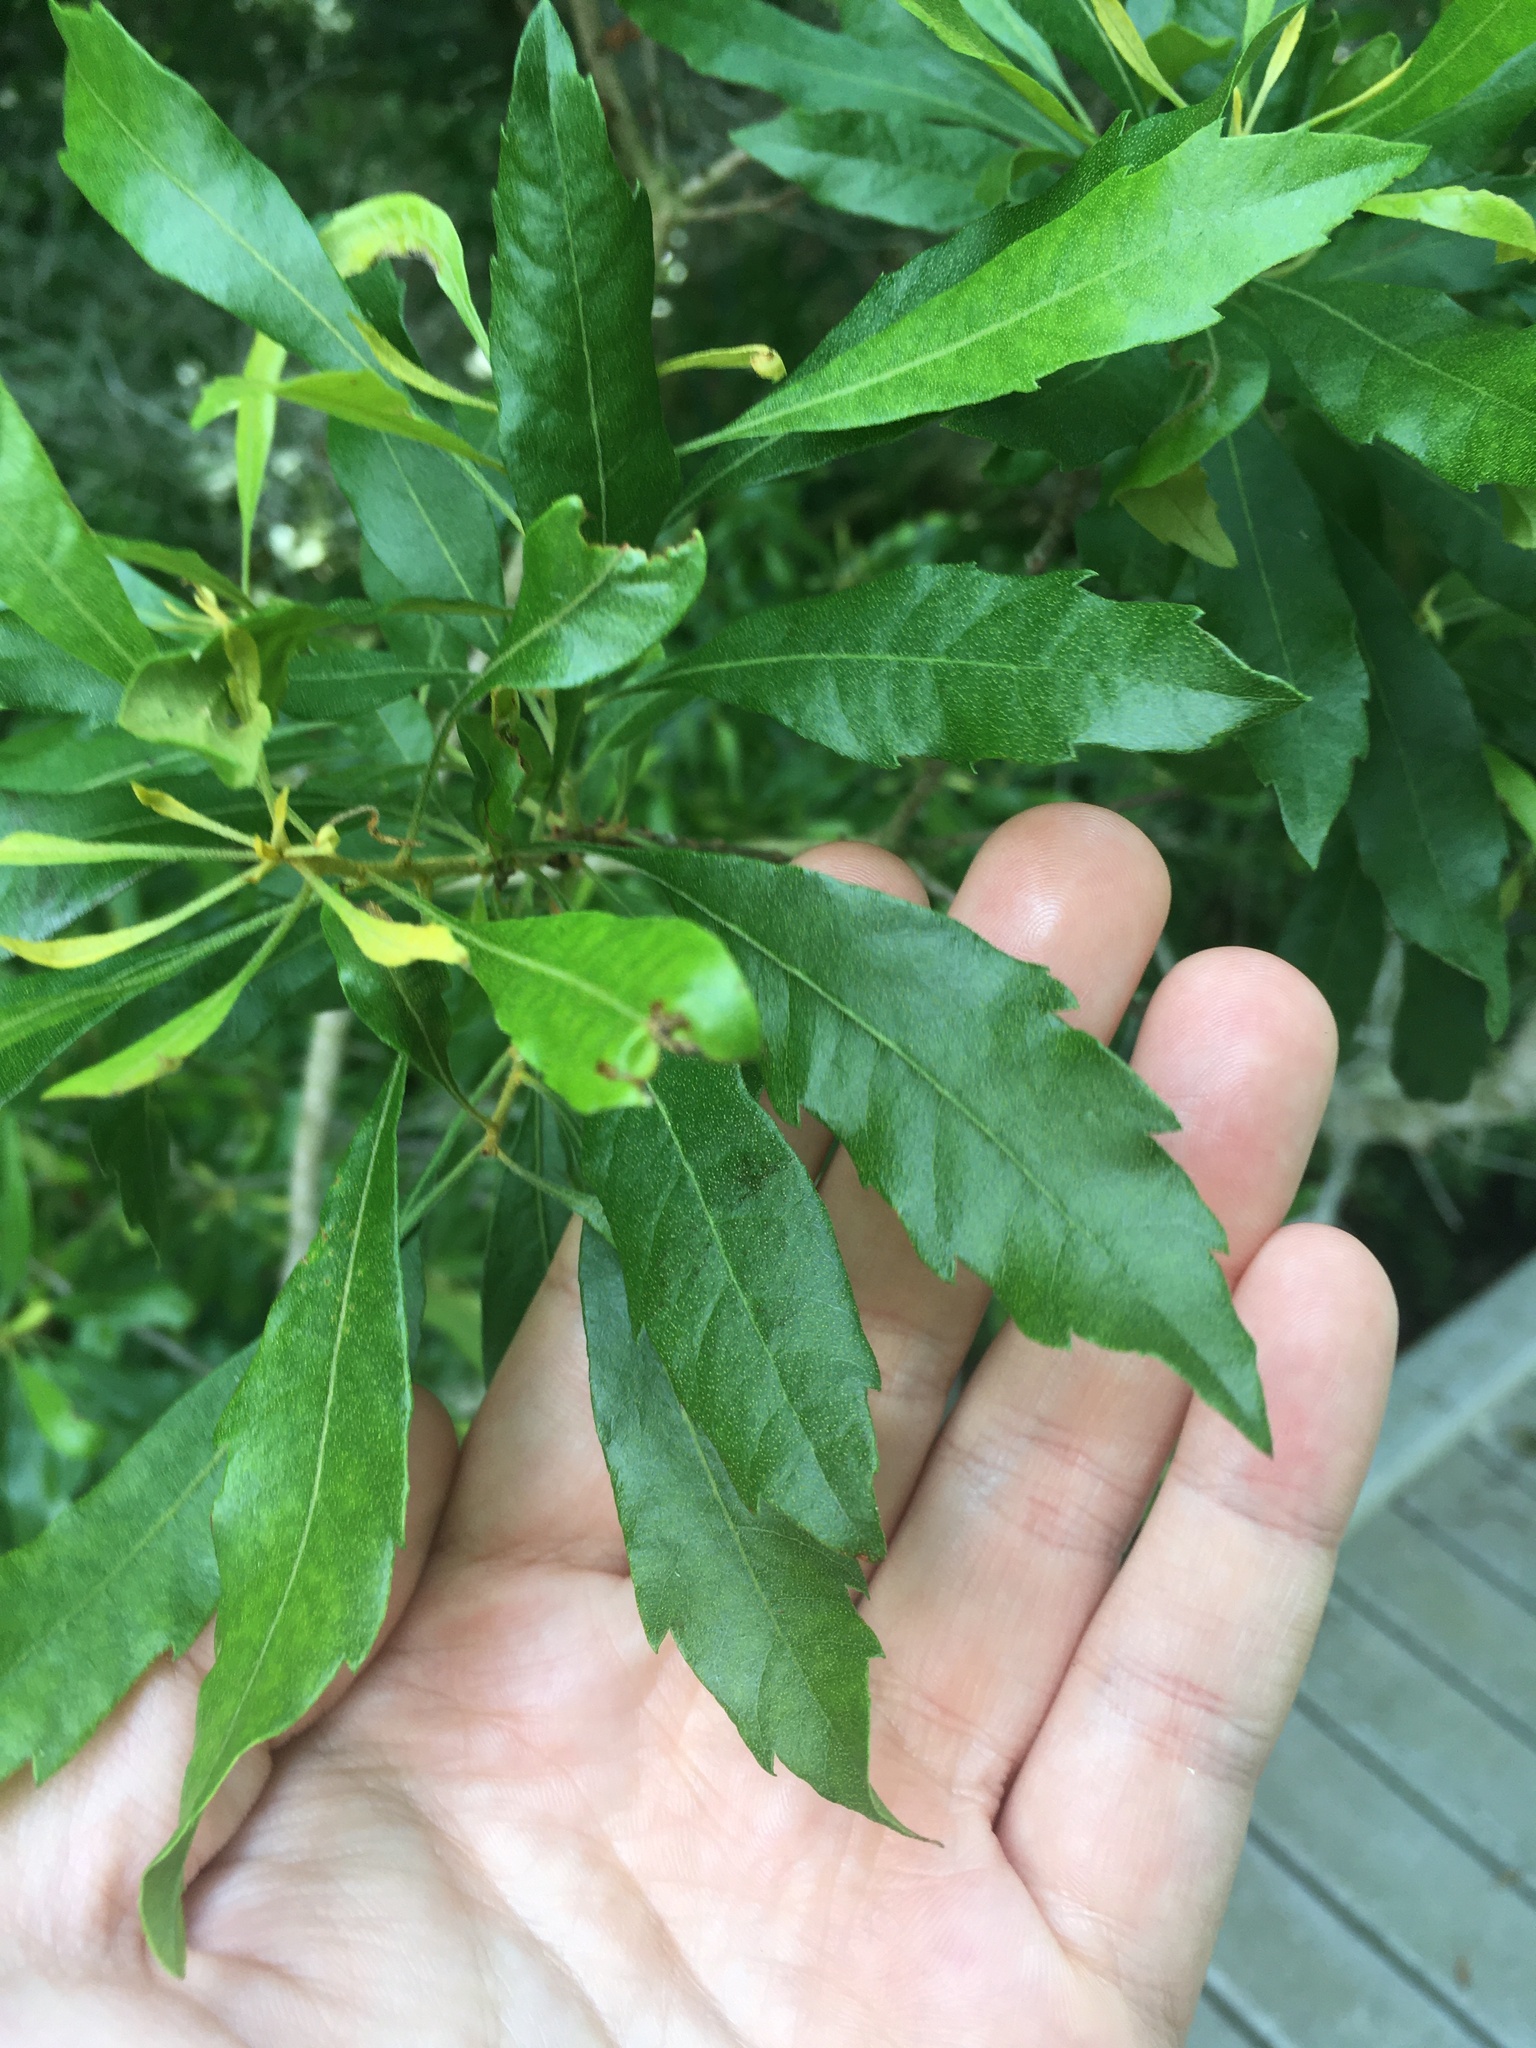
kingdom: Plantae
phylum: Tracheophyta
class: Magnoliopsida
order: Fagales
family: Myricaceae
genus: Morella
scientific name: Morella cerifera
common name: Wax myrtle
